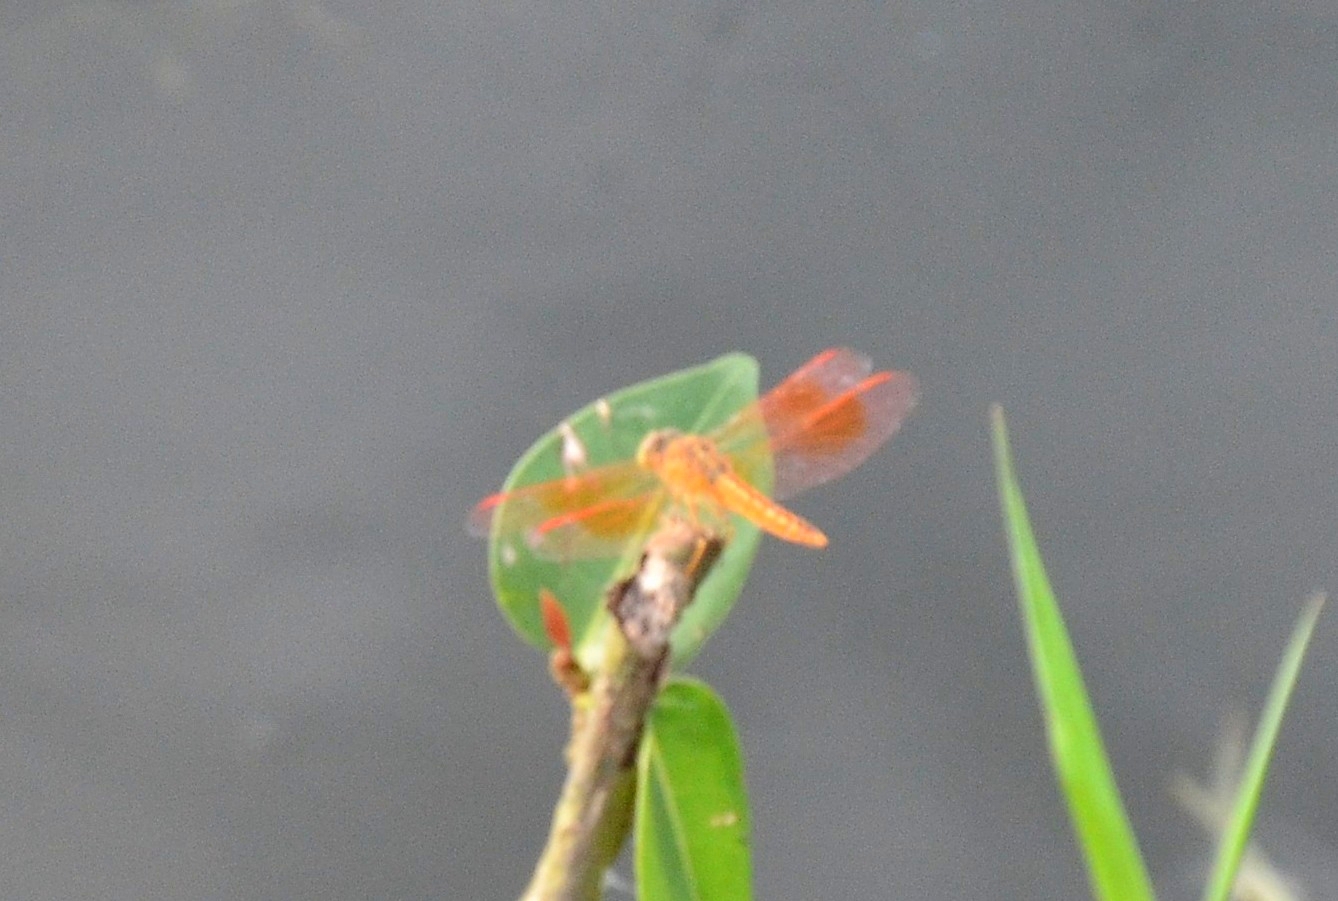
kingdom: Animalia
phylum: Arthropoda
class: Insecta
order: Odonata
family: Libellulidae
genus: Brachythemis
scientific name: Brachythemis contaminata
